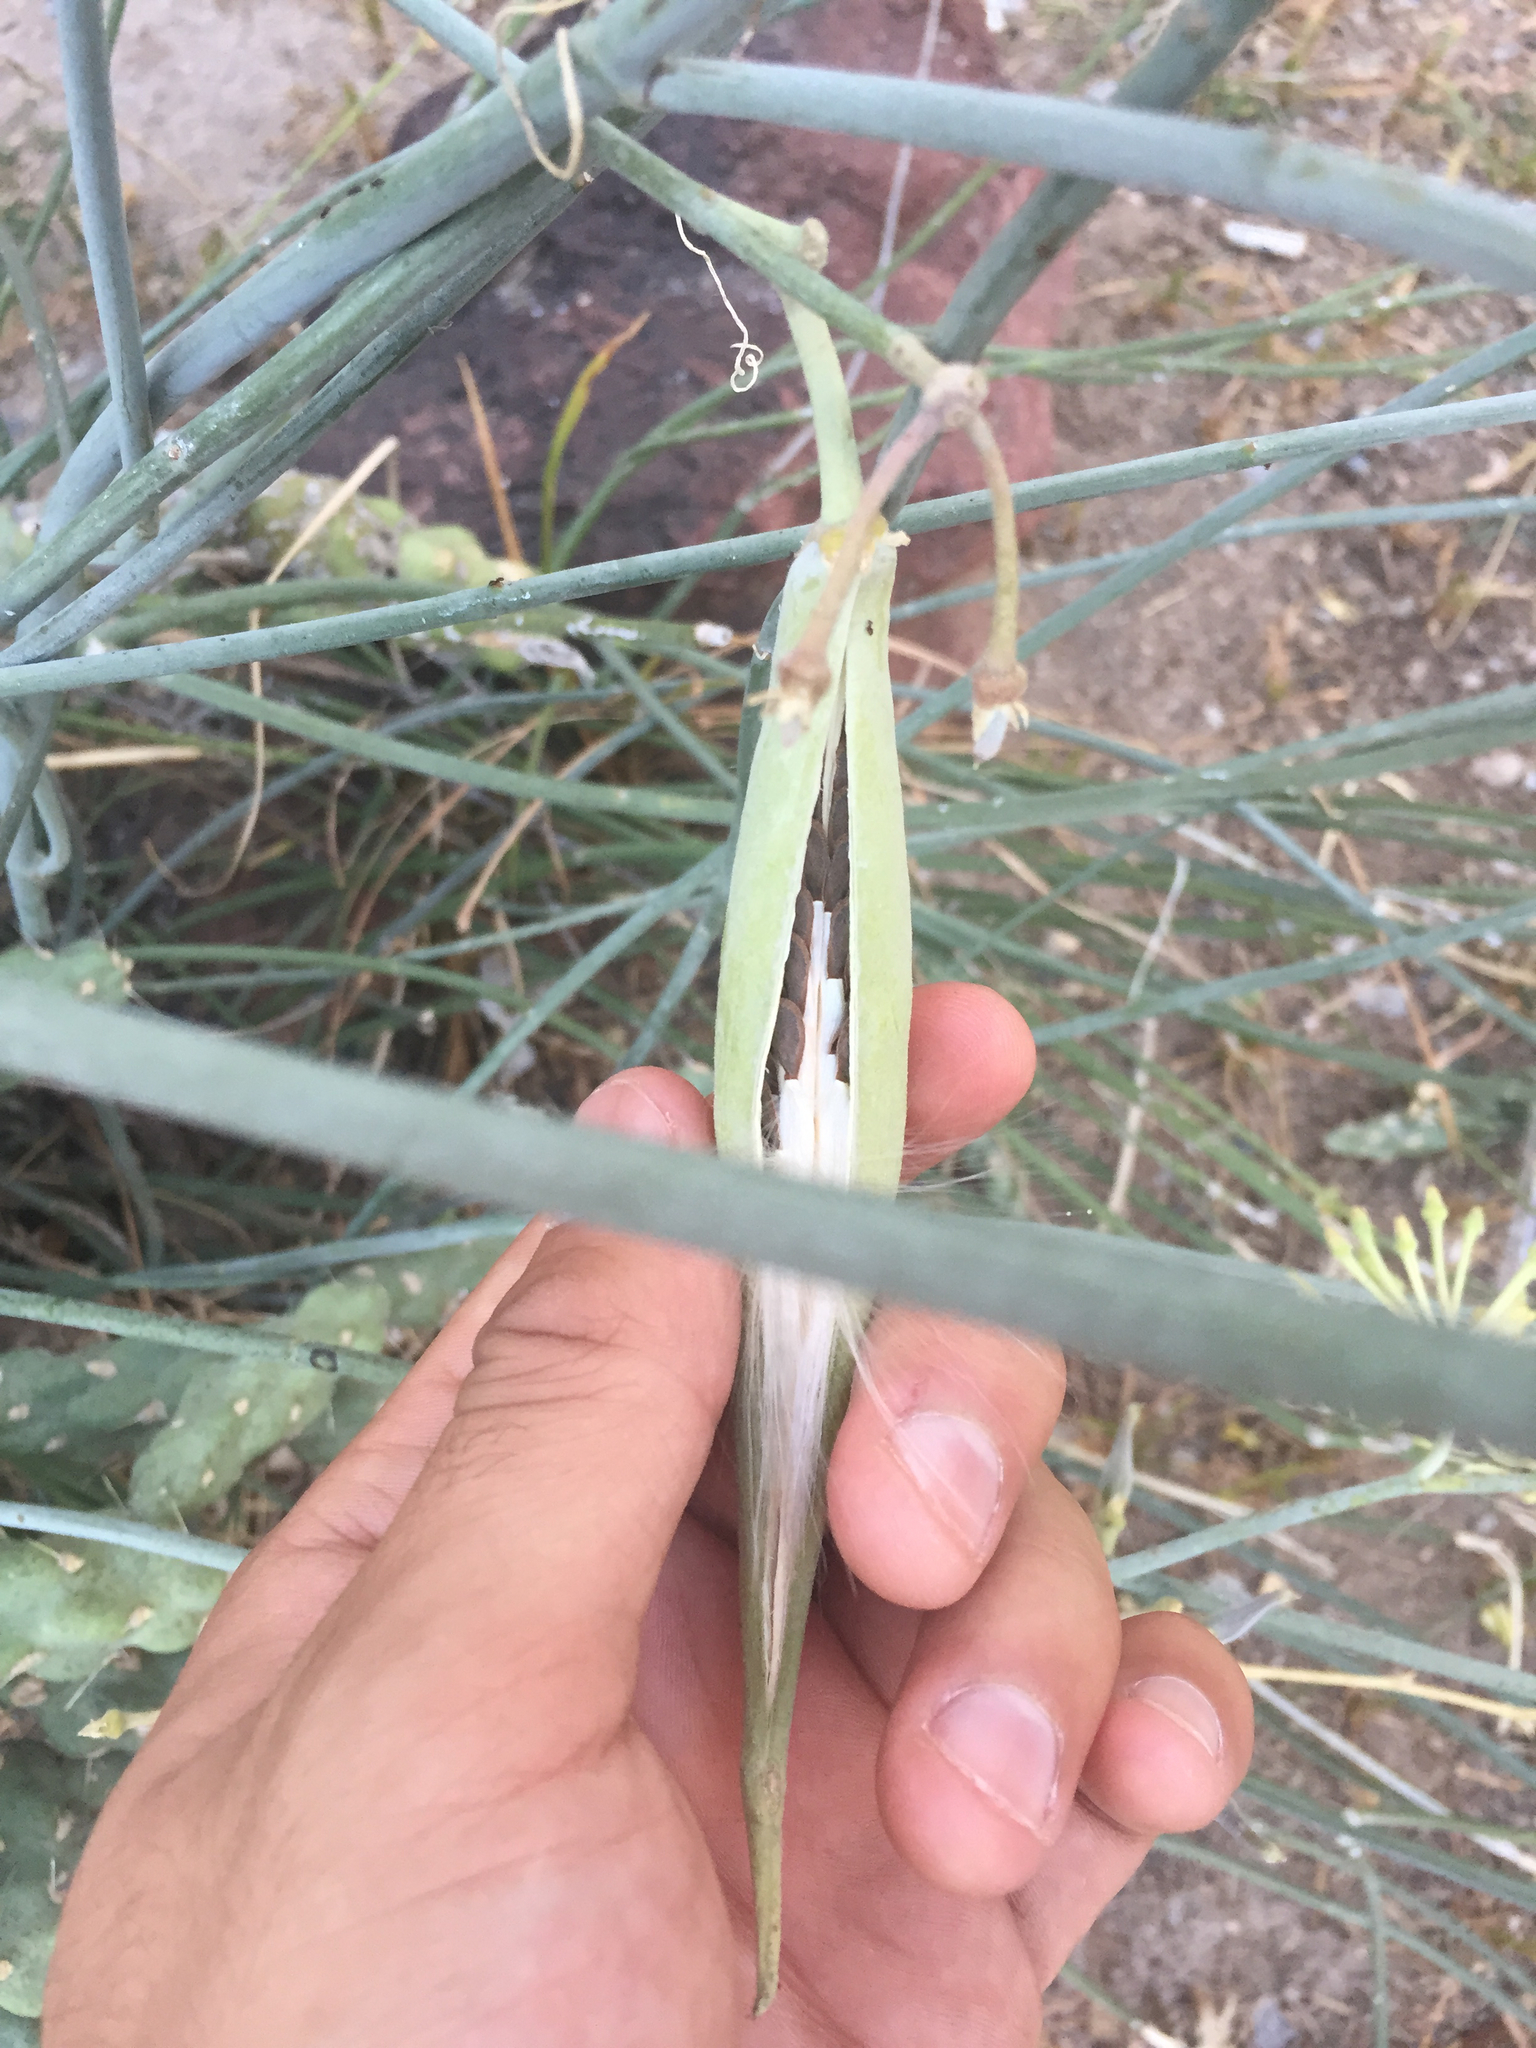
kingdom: Plantae
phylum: Tracheophyta
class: Magnoliopsida
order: Gentianales
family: Apocynaceae
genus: Asclepias
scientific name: Asclepias subulata
